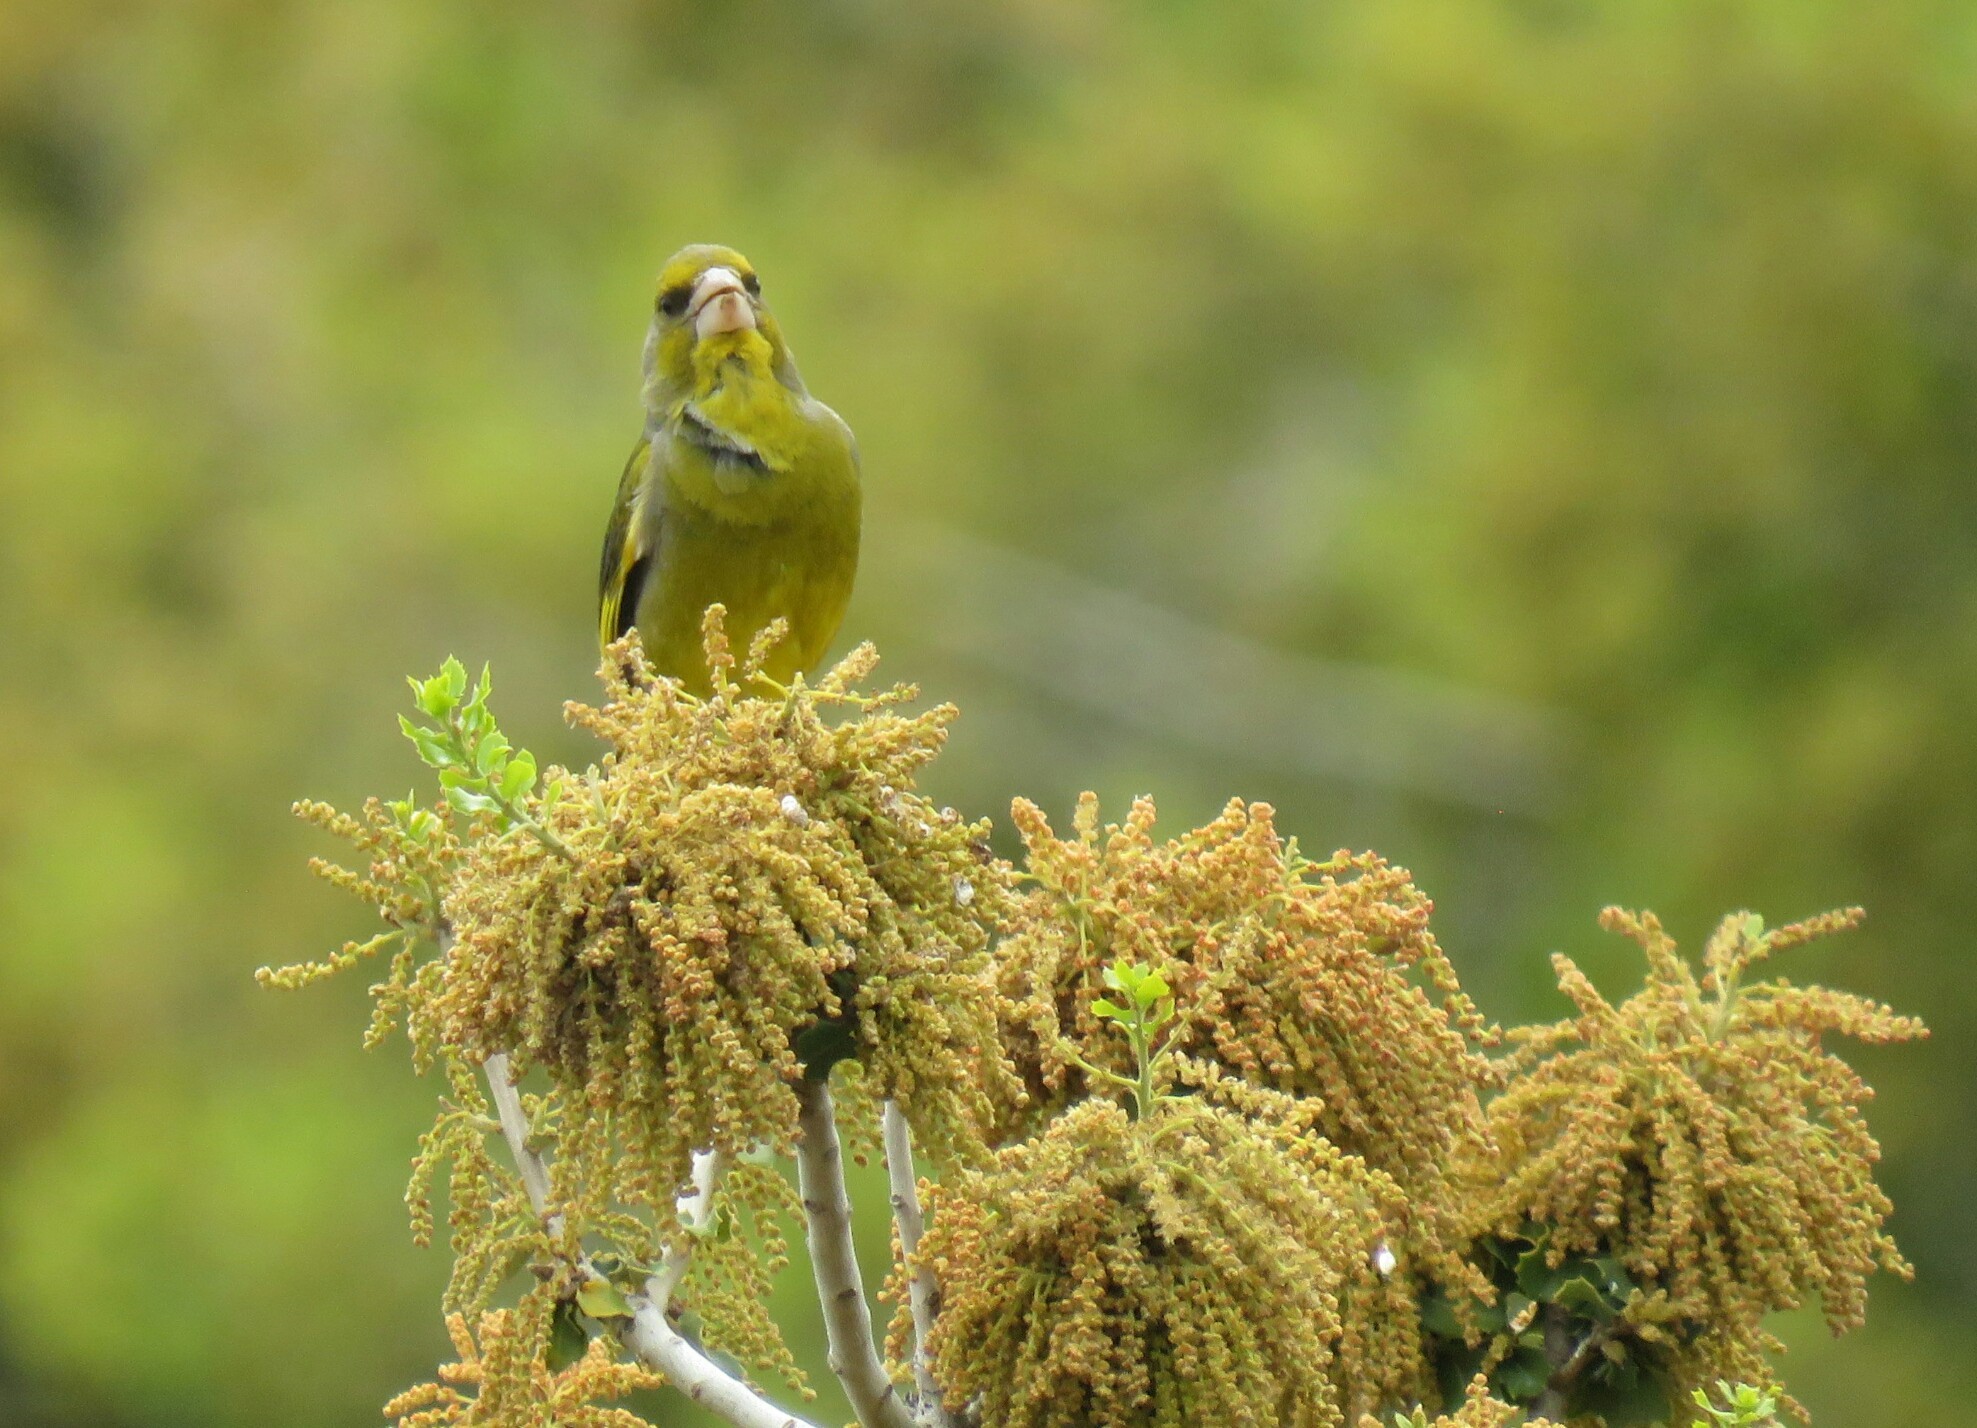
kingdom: Plantae
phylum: Tracheophyta
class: Liliopsida
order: Poales
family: Poaceae
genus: Chloris
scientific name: Chloris chloris
